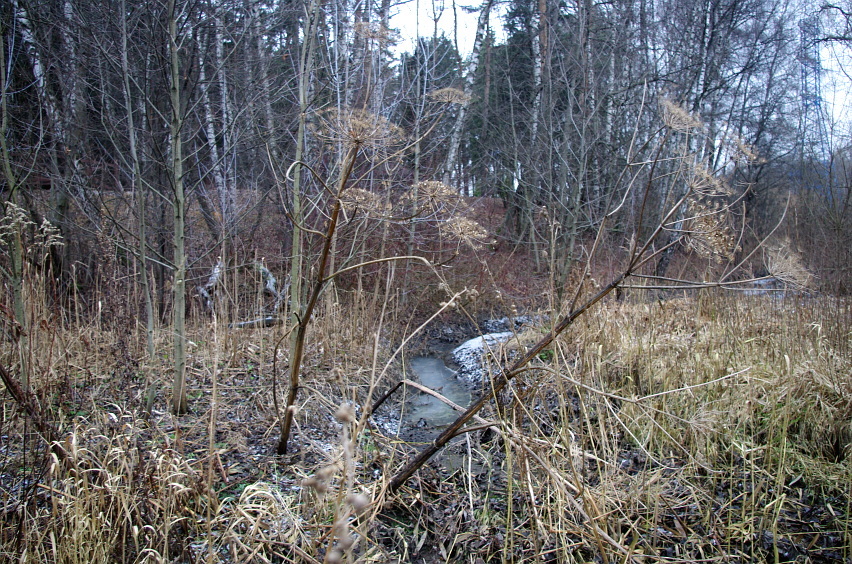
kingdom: Plantae
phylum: Tracheophyta
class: Magnoliopsida
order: Apiales
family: Apiaceae
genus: Heracleum
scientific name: Heracleum sosnowskyi
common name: Sosnowsky's hogweed
